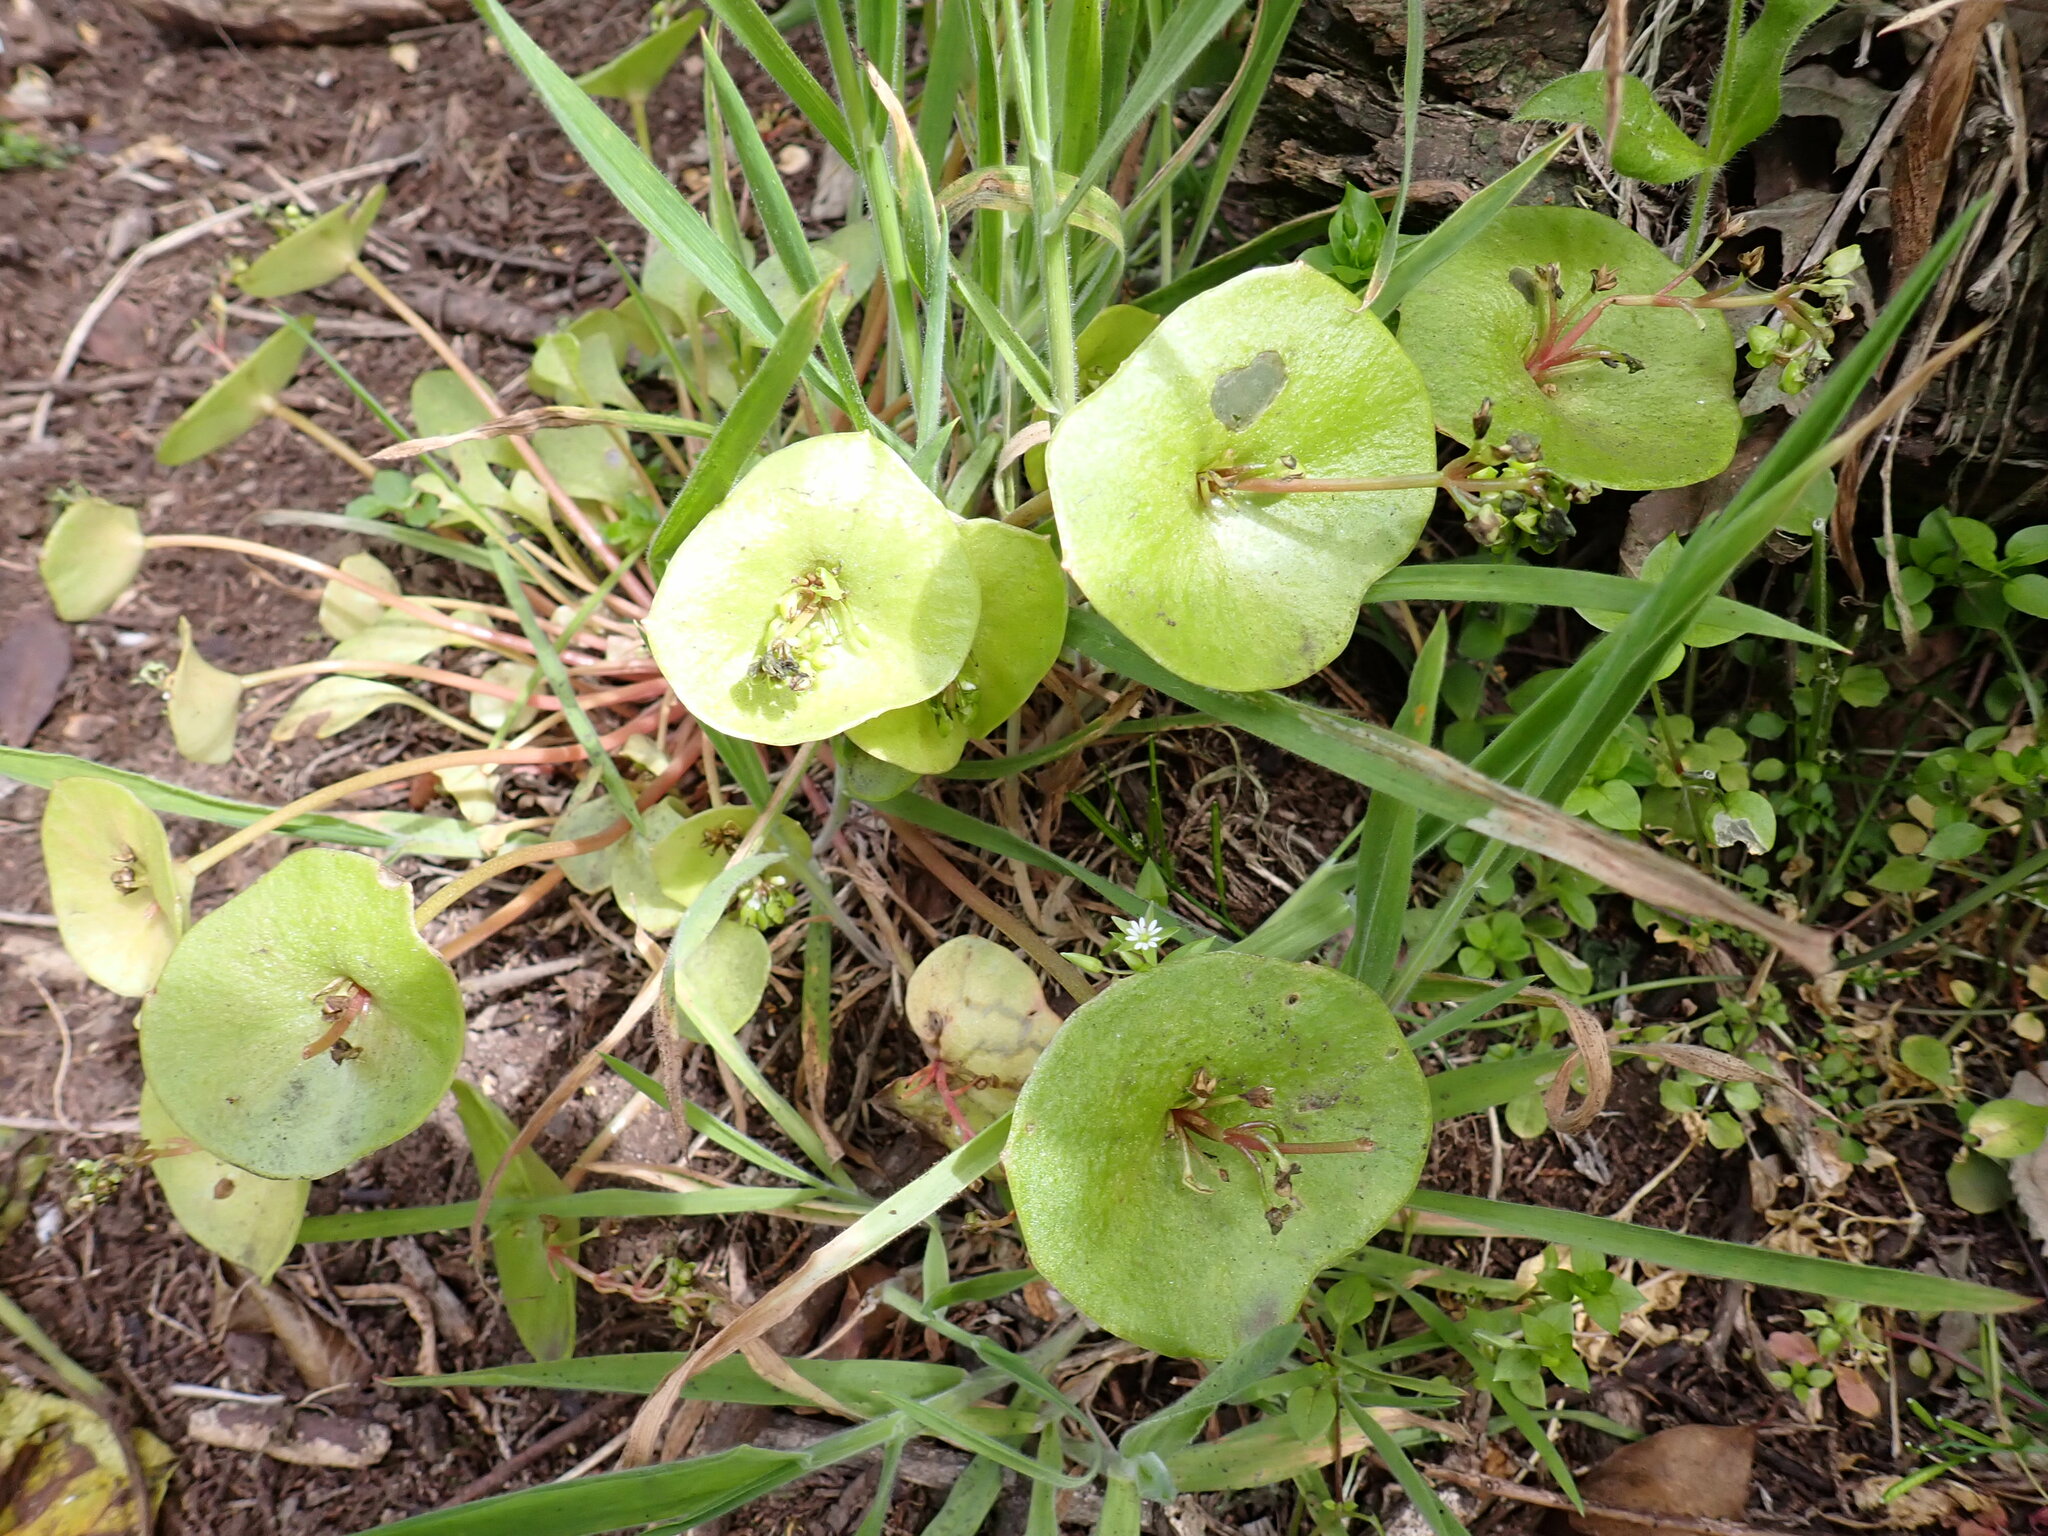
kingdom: Plantae
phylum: Tracheophyta
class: Magnoliopsida
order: Caryophyllales
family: Montiaceae
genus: Claytonia
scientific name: Claytonia perfoliata
